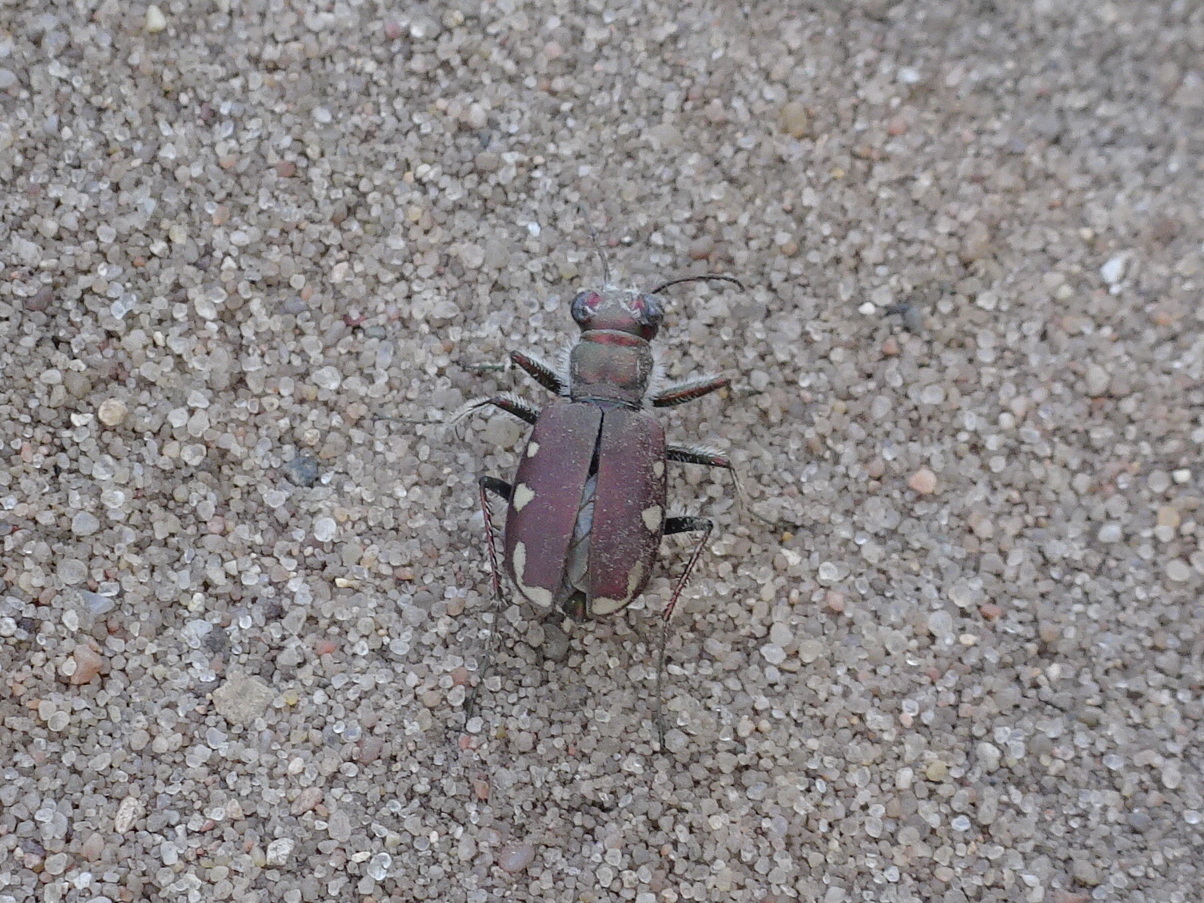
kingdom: Animalia
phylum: Arthropoda
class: Insecta
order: Coleoptera
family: Carabidae
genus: Cicindela
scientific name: Cicindela scutellaris
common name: Festive tiger beetle
